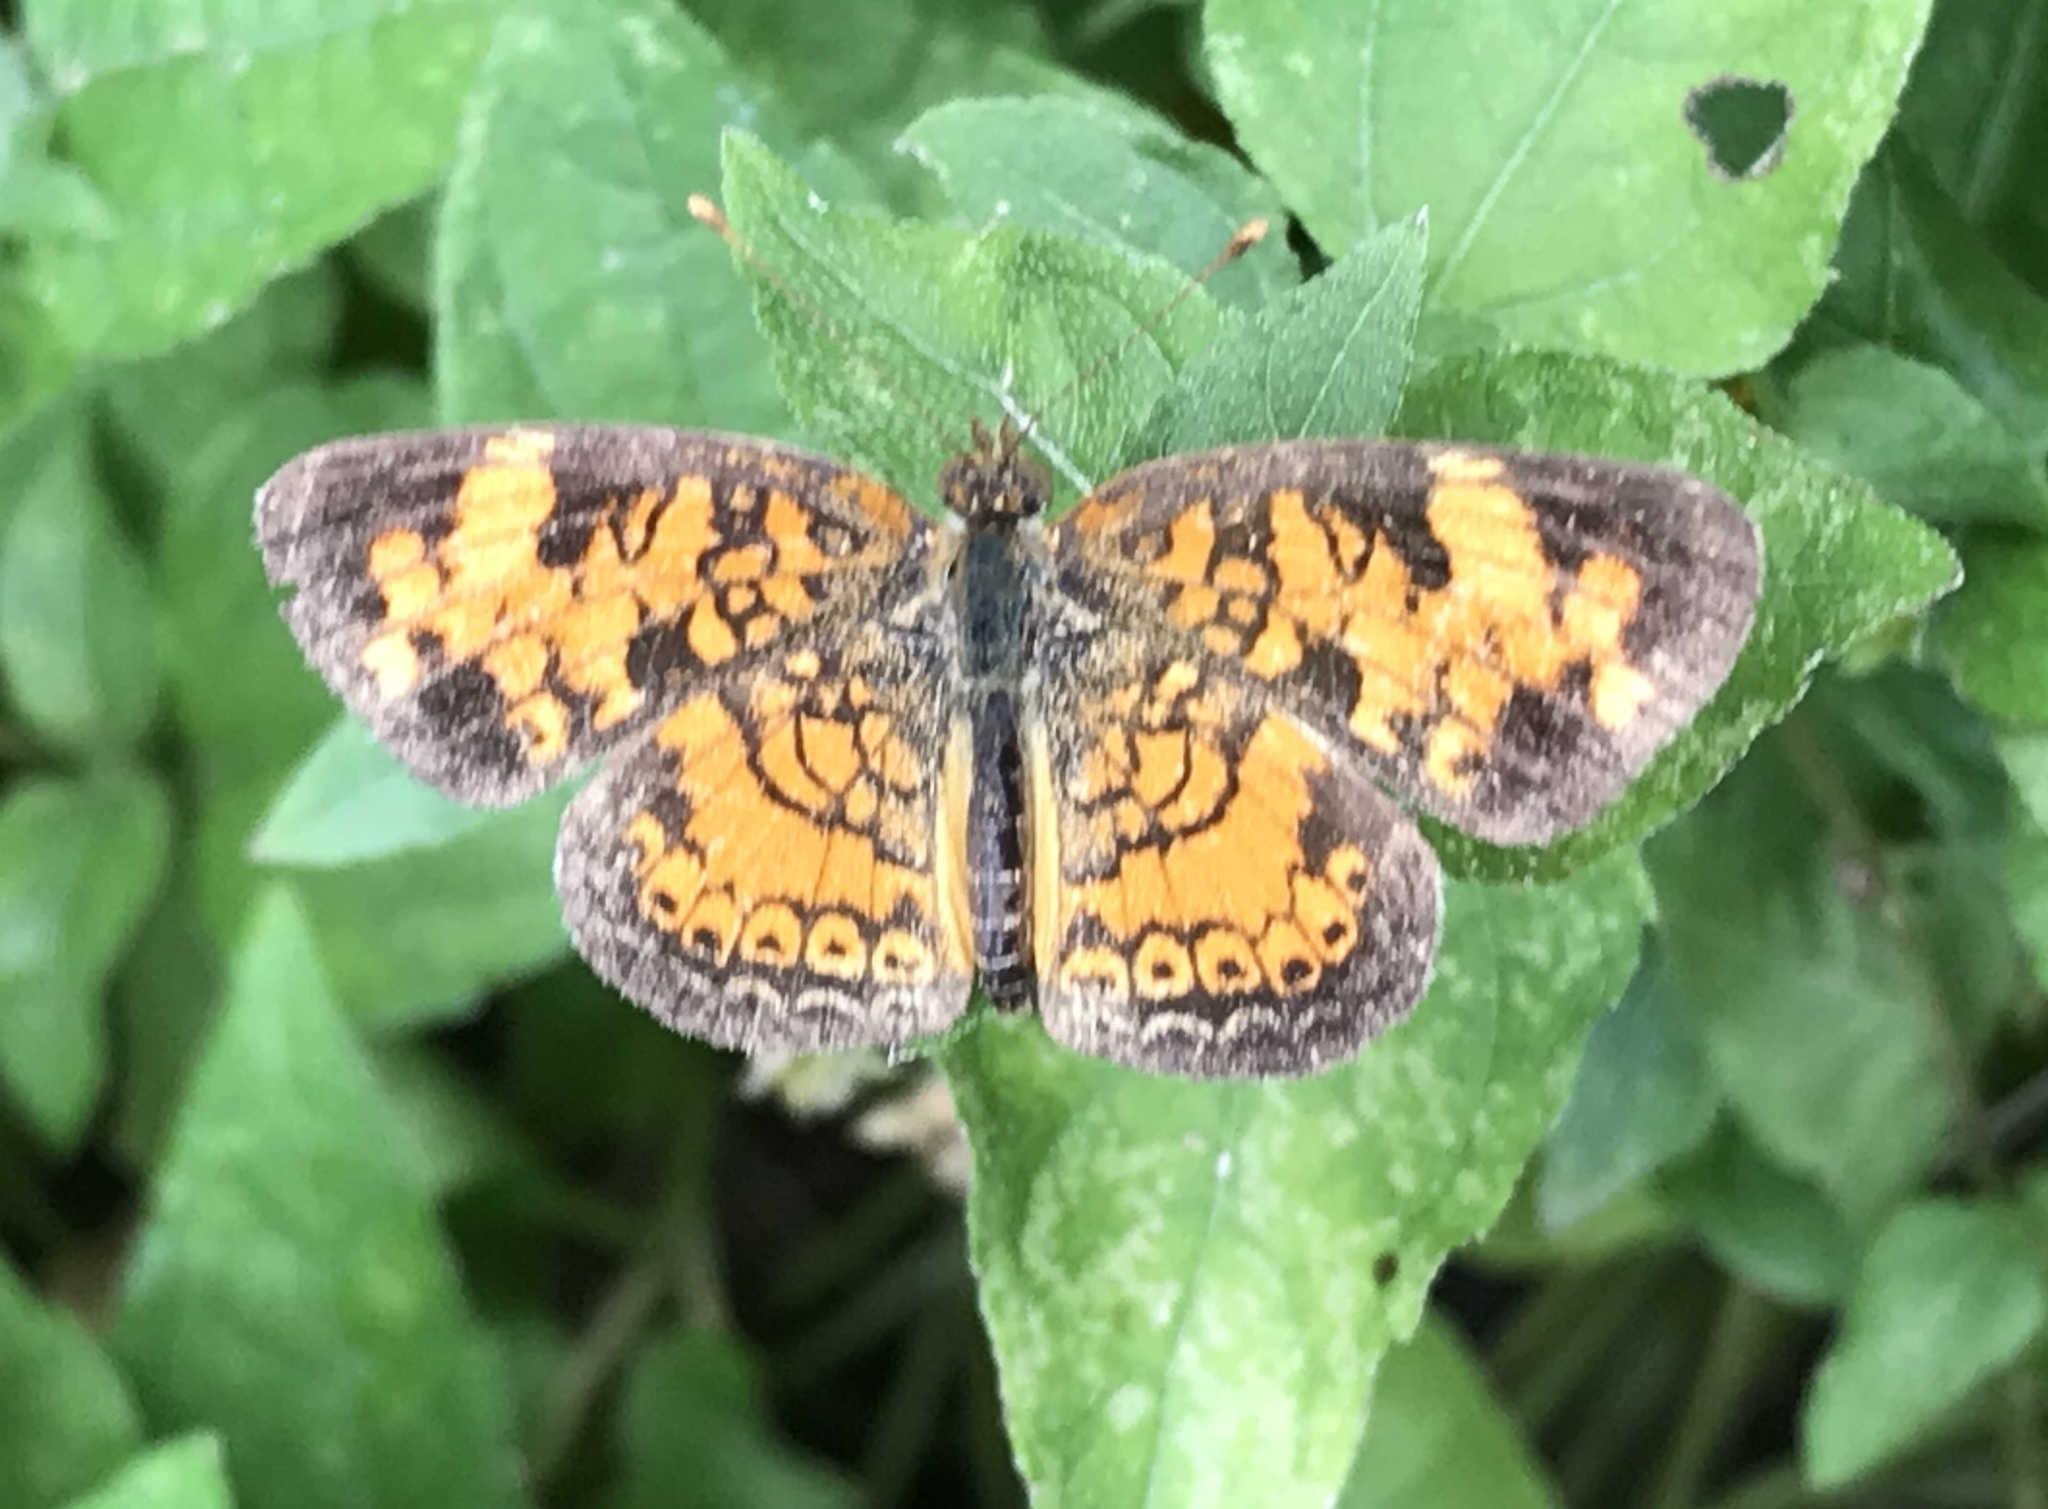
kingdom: Animalia
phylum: Arthropoda
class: Insecta
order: Lepidoptera
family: Nymphalidae
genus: Phyciodes
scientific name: Phyciodes tharos
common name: Pearl crescent
